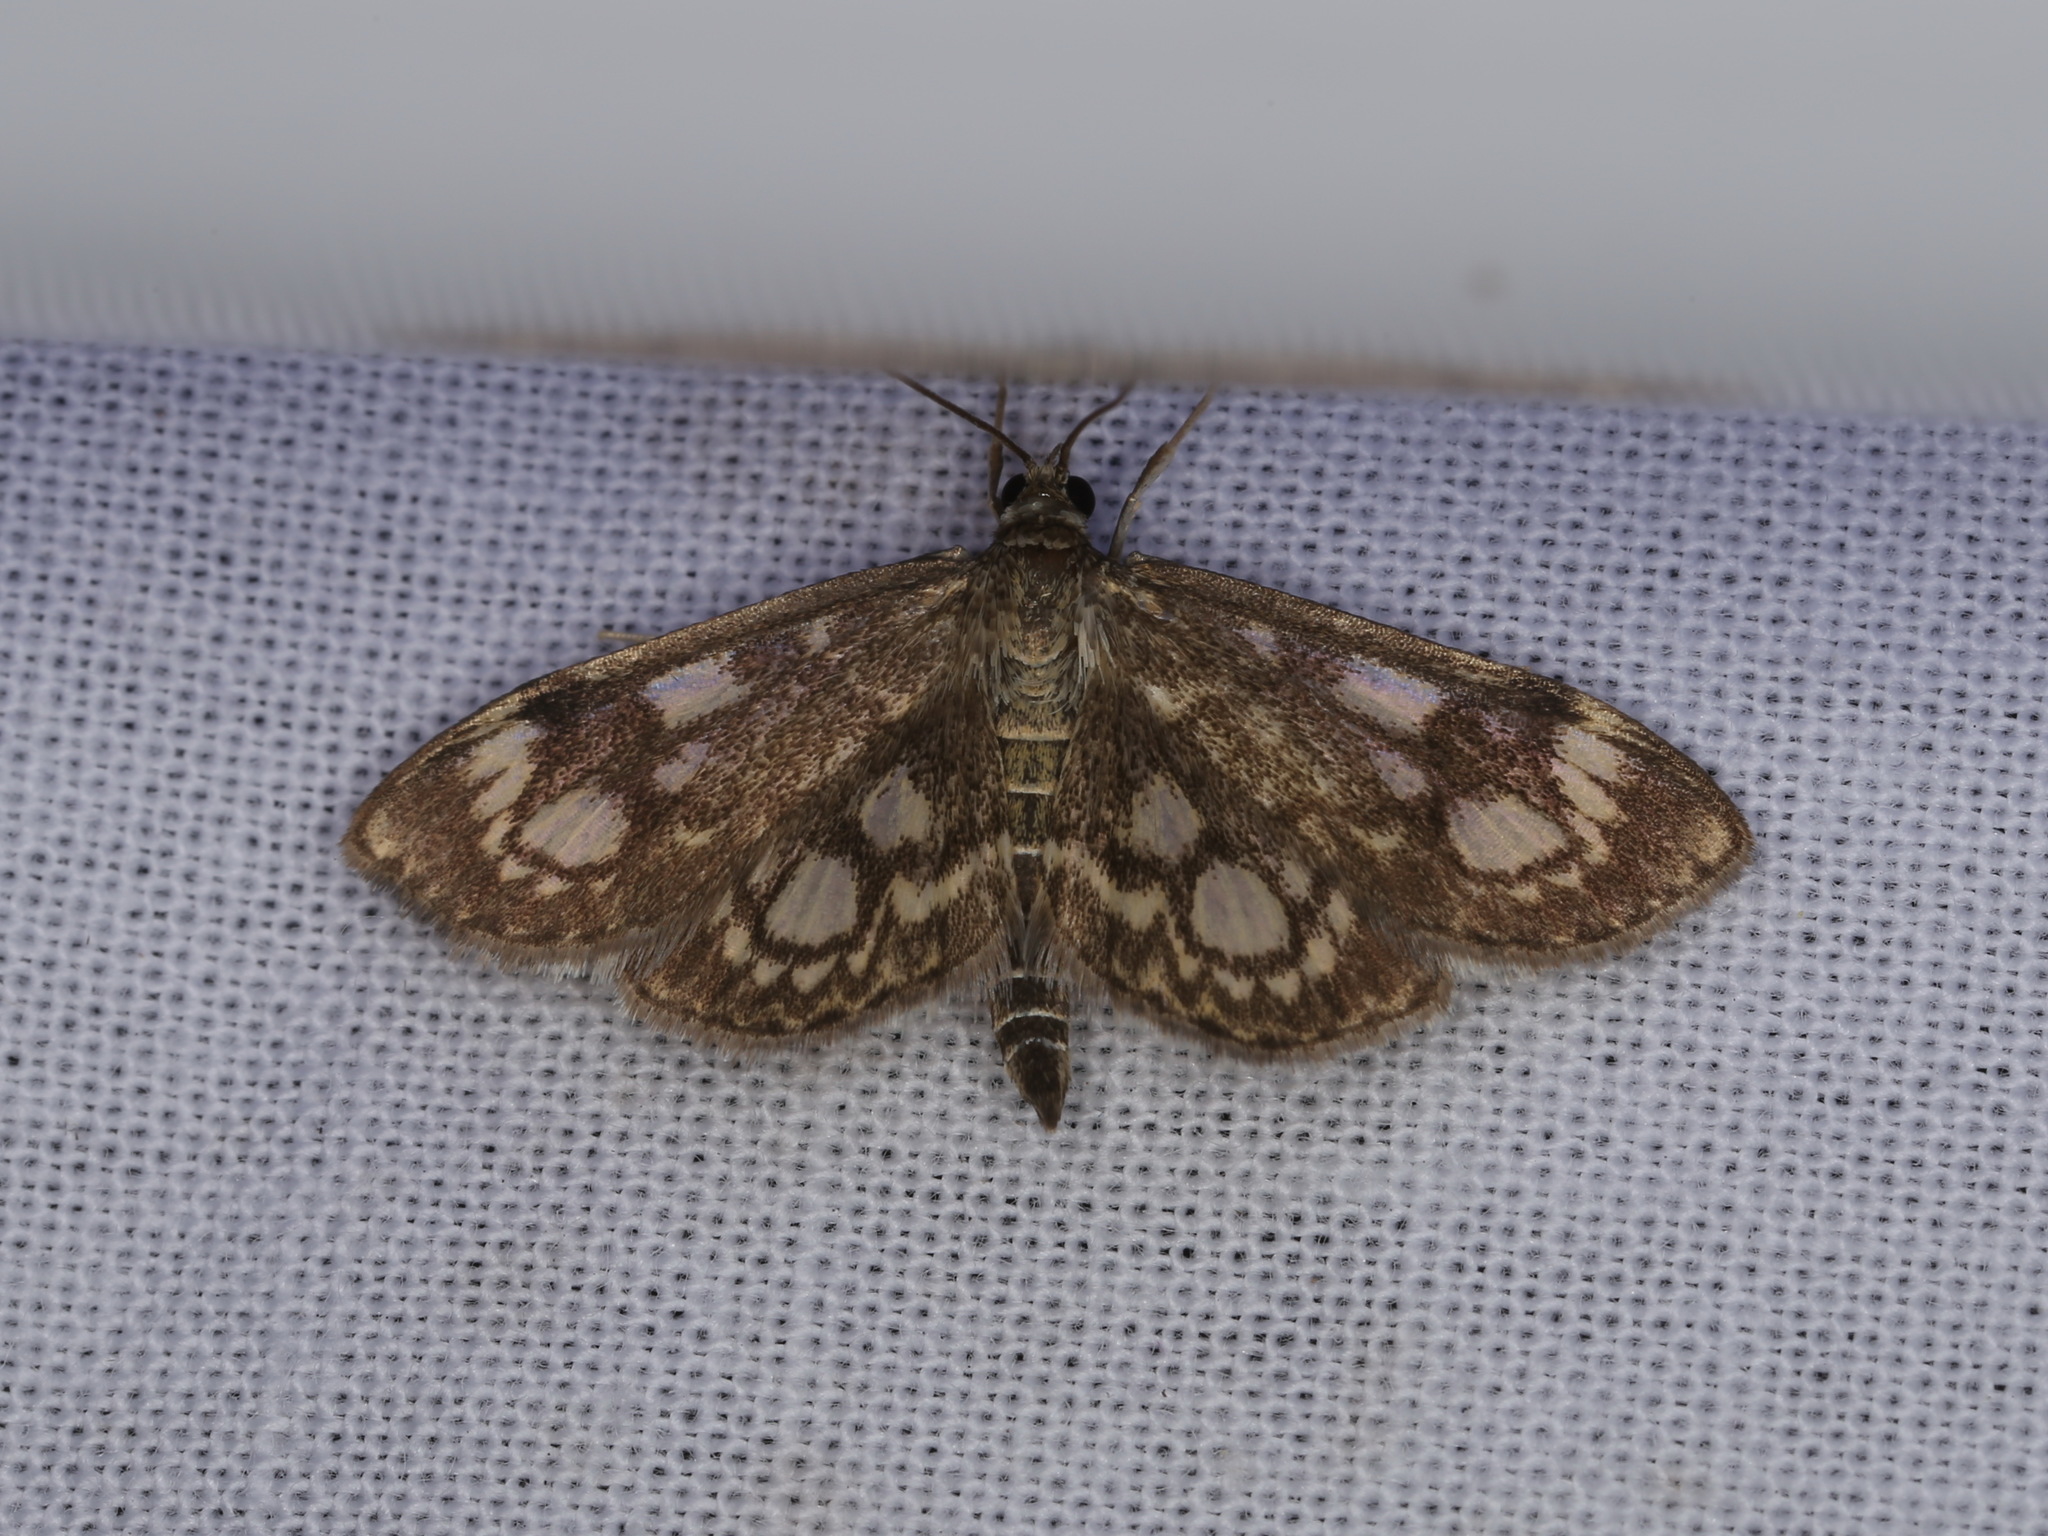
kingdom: Animalia
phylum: Arthropoda
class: Insecta
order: Lepidoptera
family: Crambidae
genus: Anania
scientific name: Anania coronata
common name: Elder pearl
